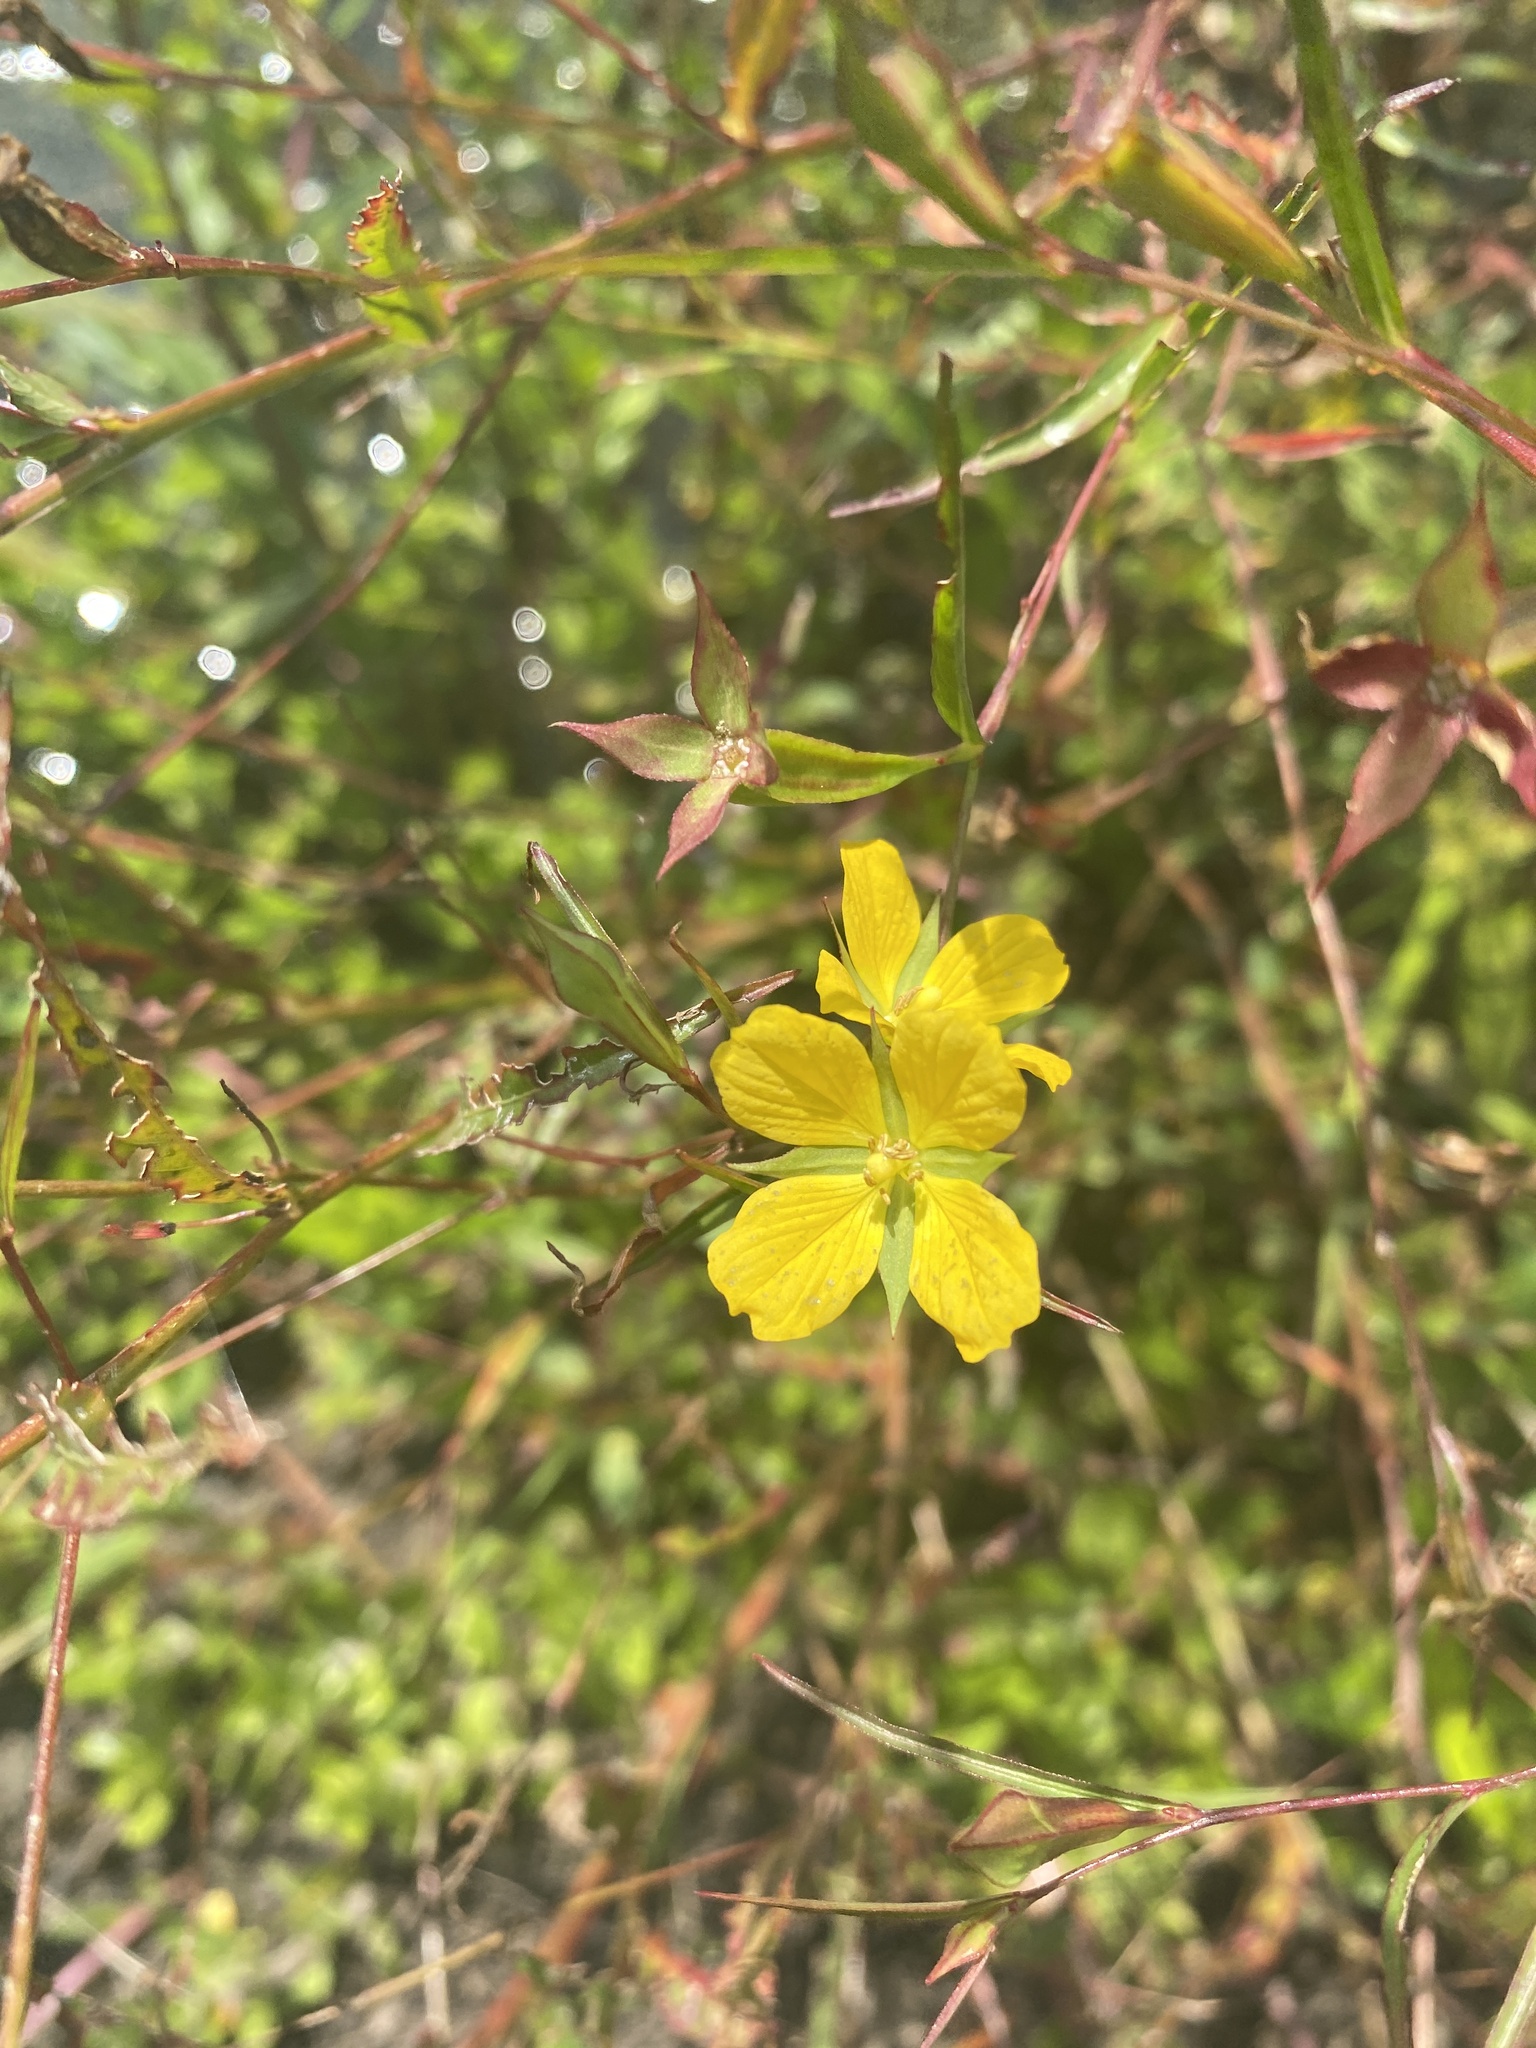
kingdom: Plantae
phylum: Tracheophyta
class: Magnoliopsida
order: Myrtales
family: Onagraceae
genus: Ludwigia
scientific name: Ludwigia decurrens
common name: Winged water-primrose
